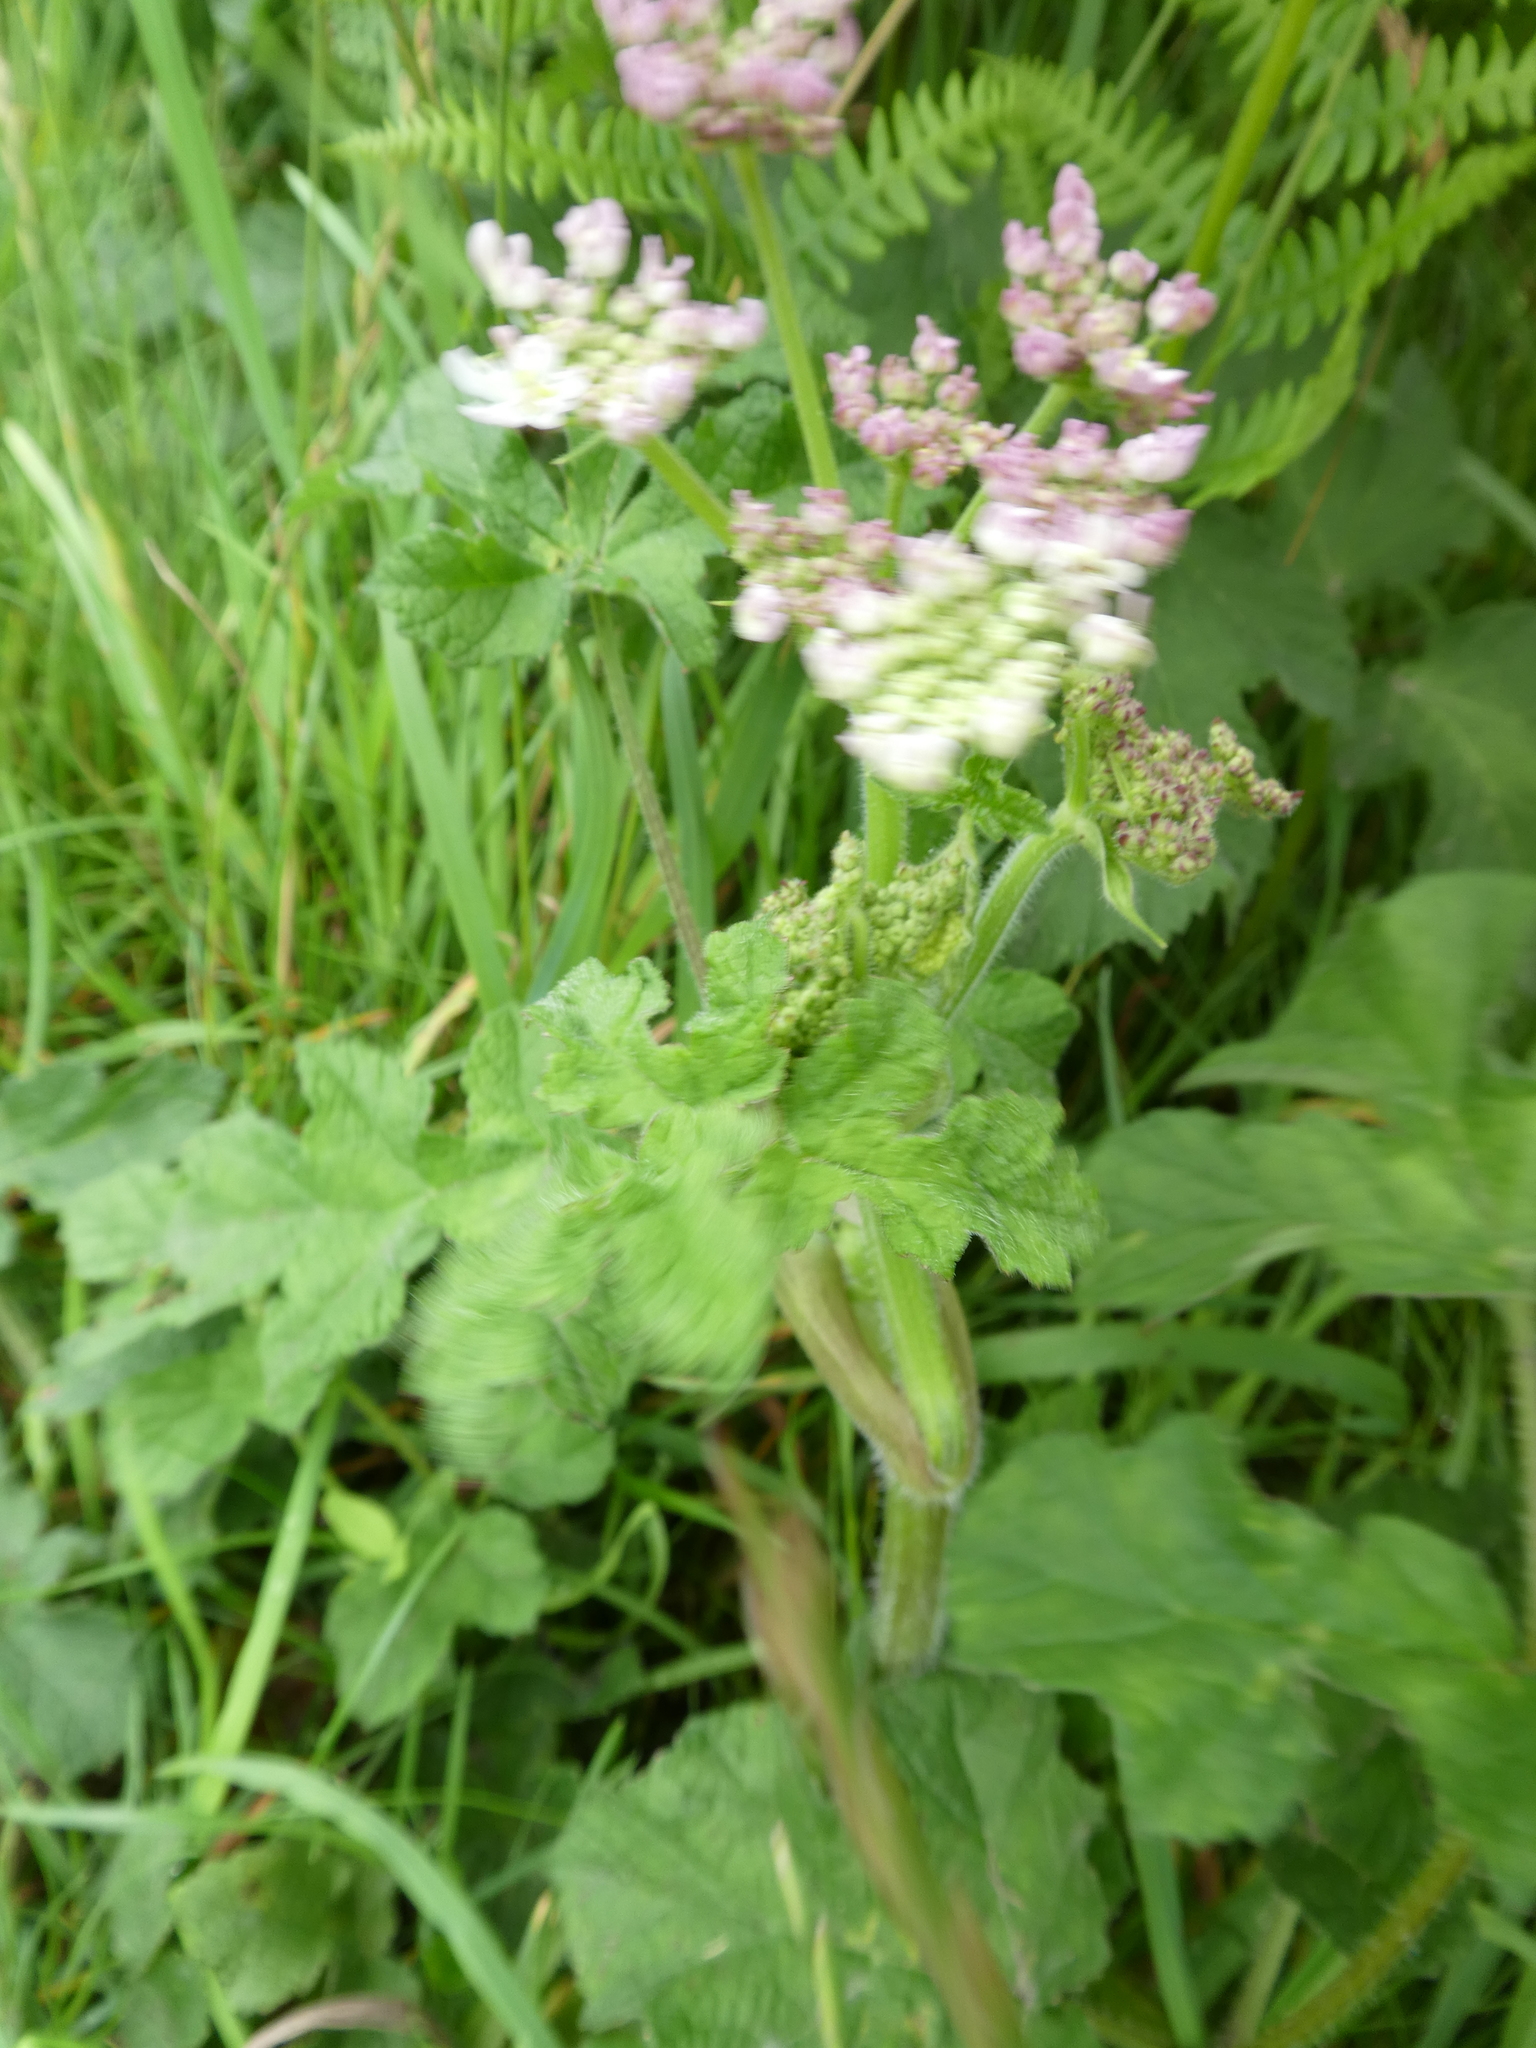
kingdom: Plantae
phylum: Tracheophyta
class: Magnoliopsida
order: Apiales
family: Apiaceae
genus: Heracleum
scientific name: Heracleum sphondylium
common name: Hogweed
